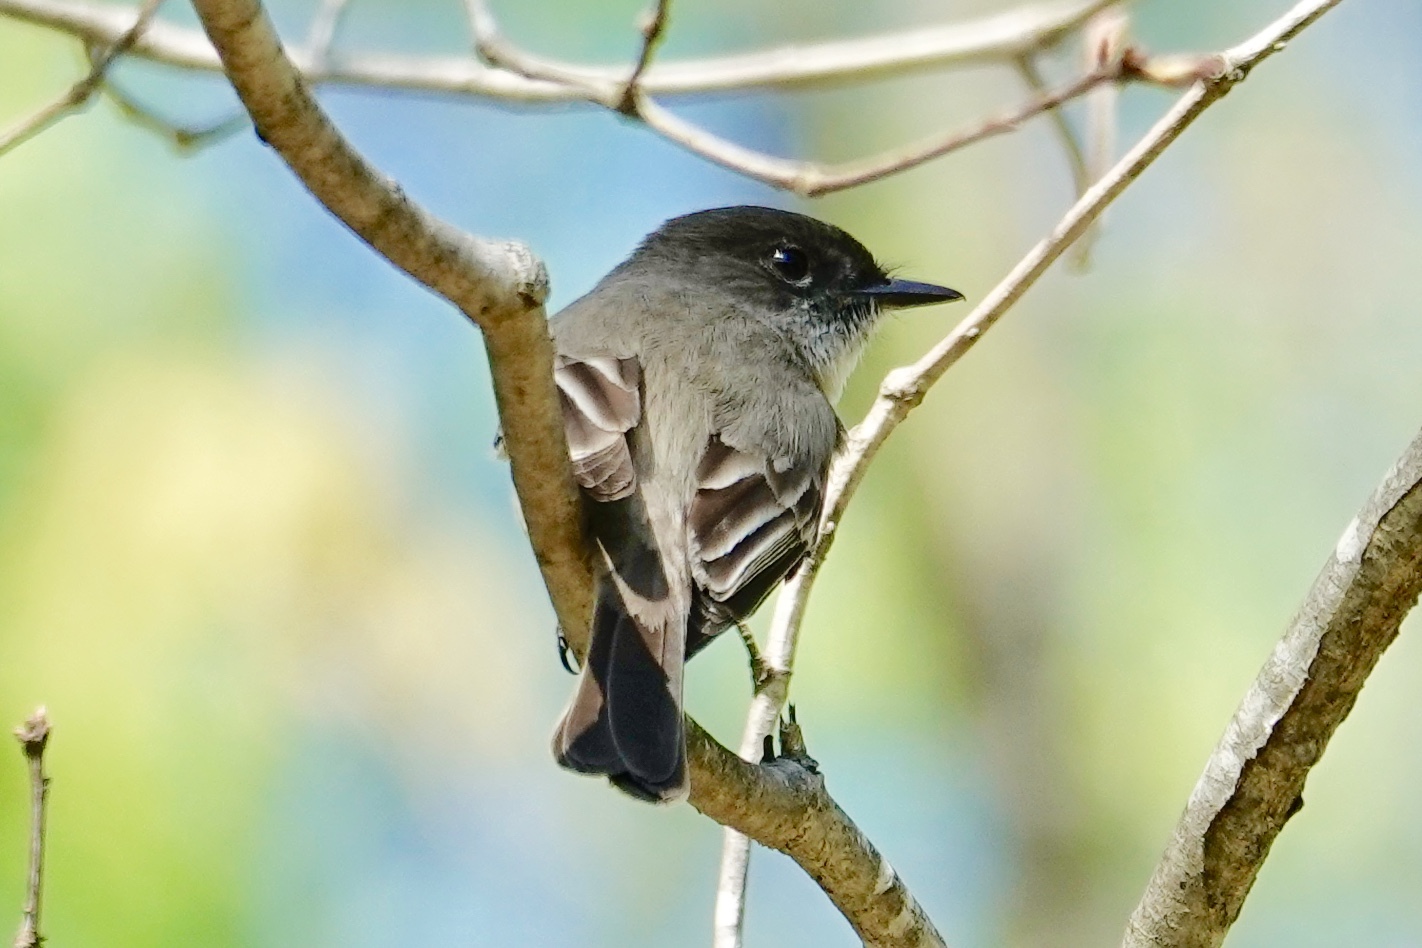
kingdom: Animalia
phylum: Chordata
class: Aves
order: Passeriformes
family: Tyrannidae
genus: Sayornis
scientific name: Sayornis phoebe
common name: Eastern phoebe
